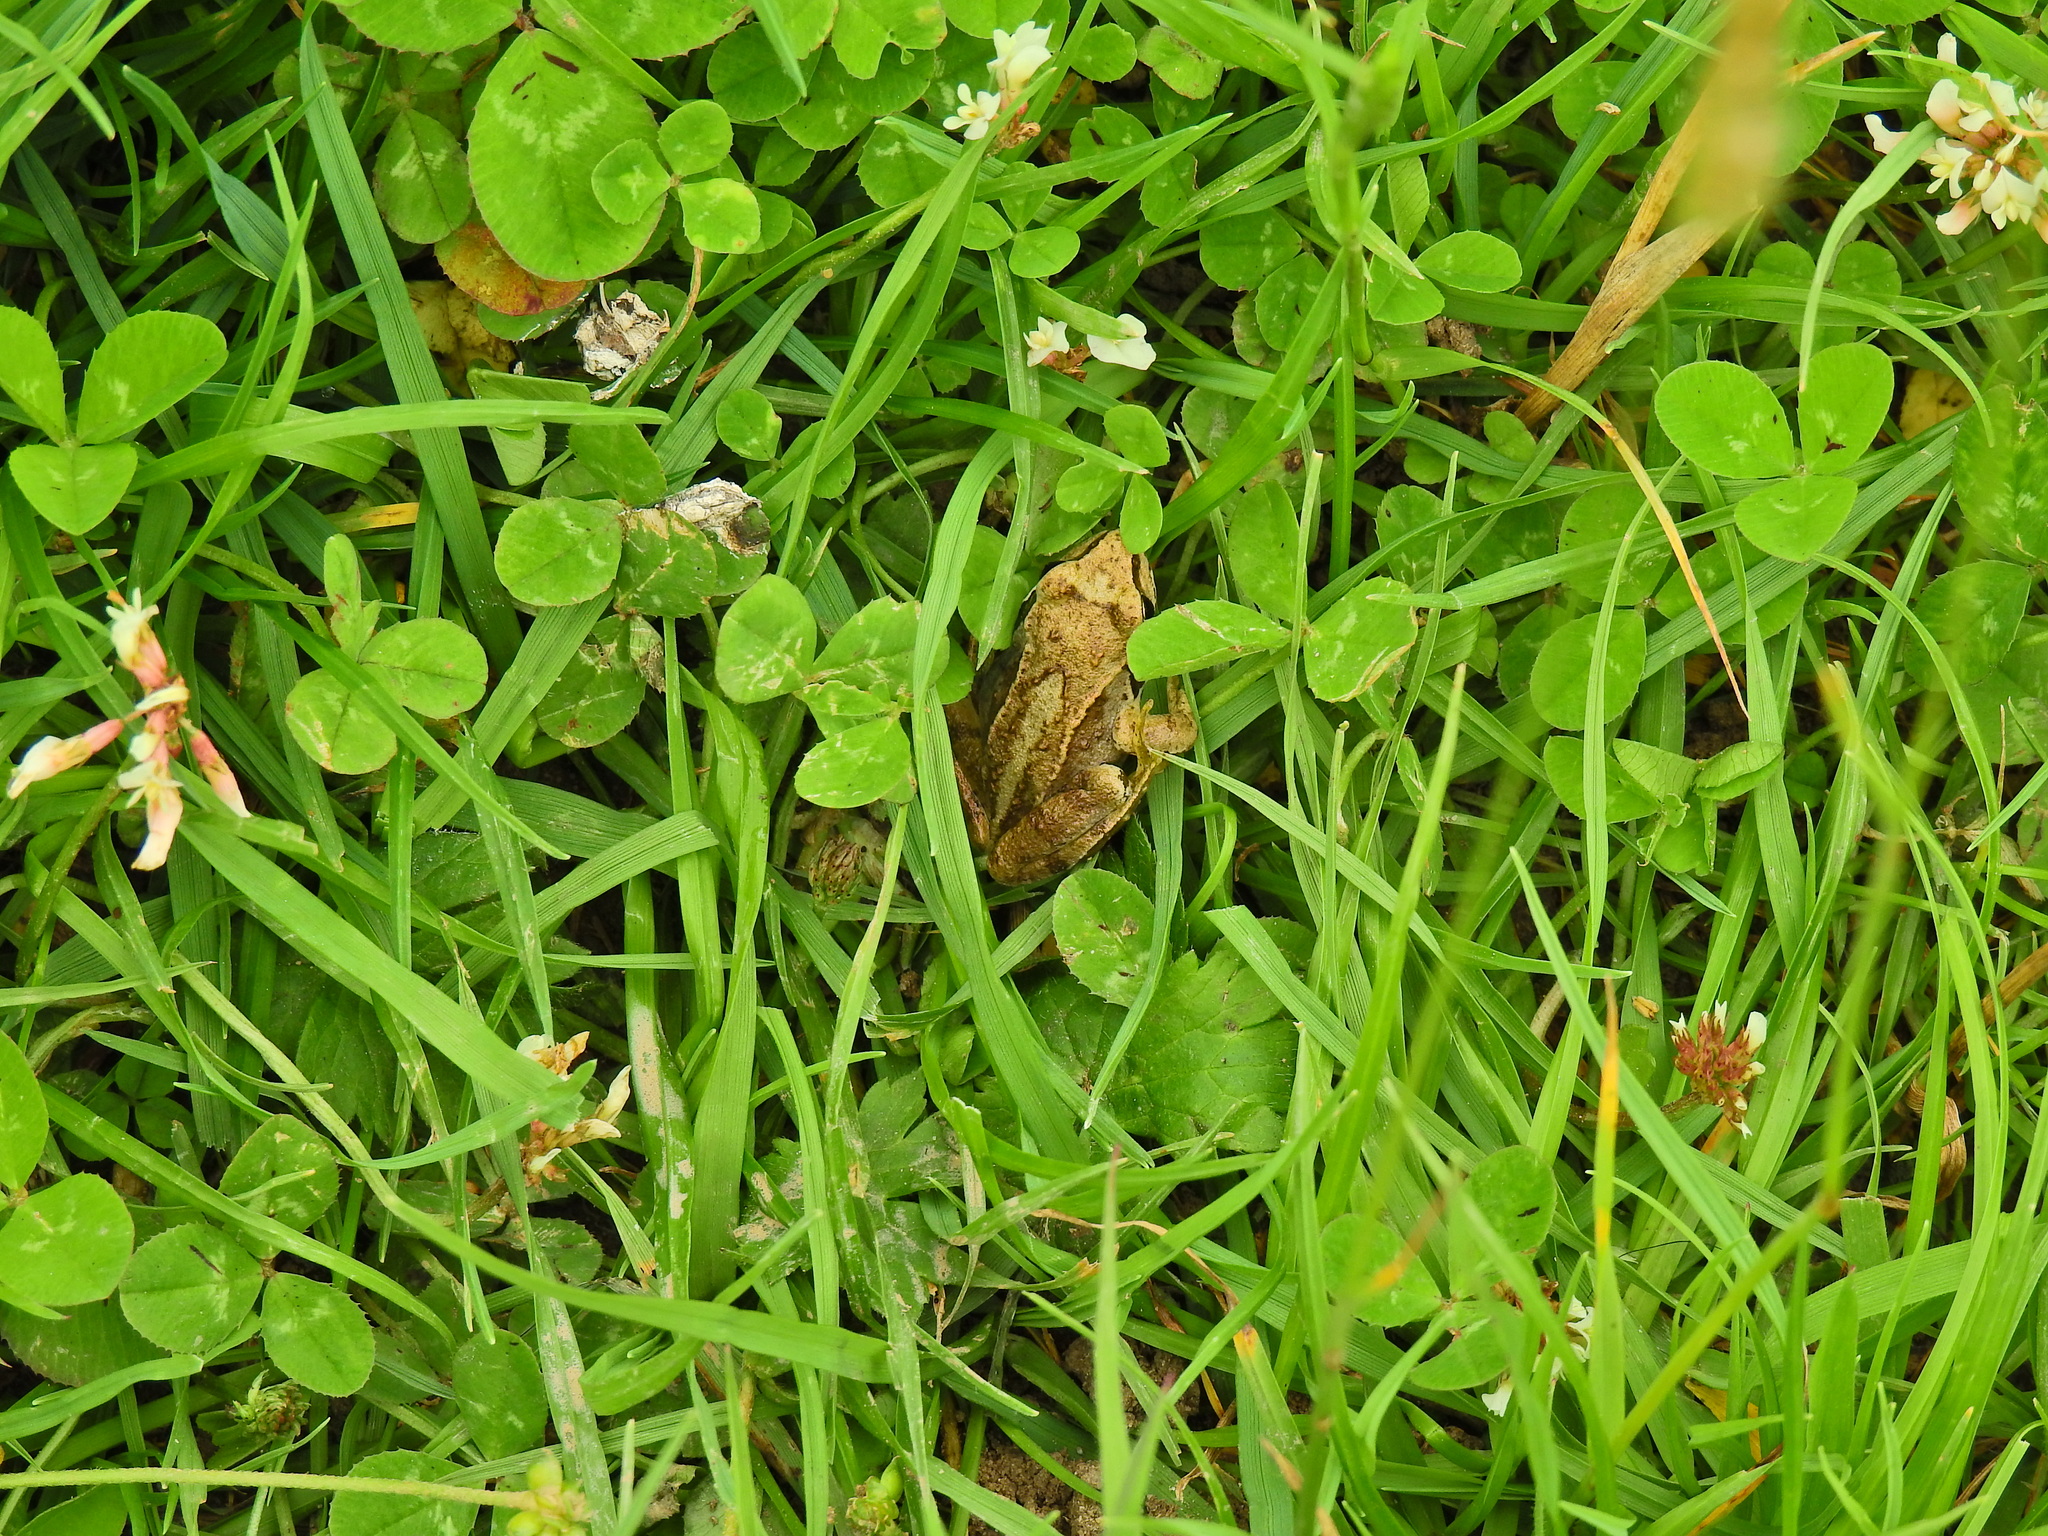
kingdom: Animalia
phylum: Chordata
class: Amphibia
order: Anura
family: Ranidae
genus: Rana
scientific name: Rana temporaria
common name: Common frog
